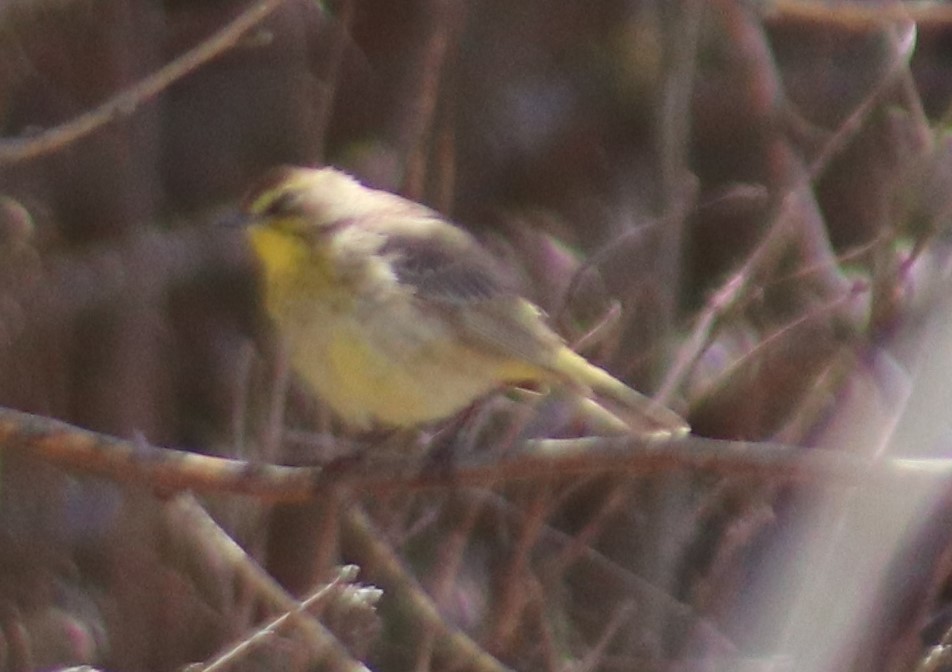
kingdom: Animalia
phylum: Chordata
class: Aves
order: Passeriformes
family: Parulidae
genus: Setophaga
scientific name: Setophaga palmarum
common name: Palm warbler
